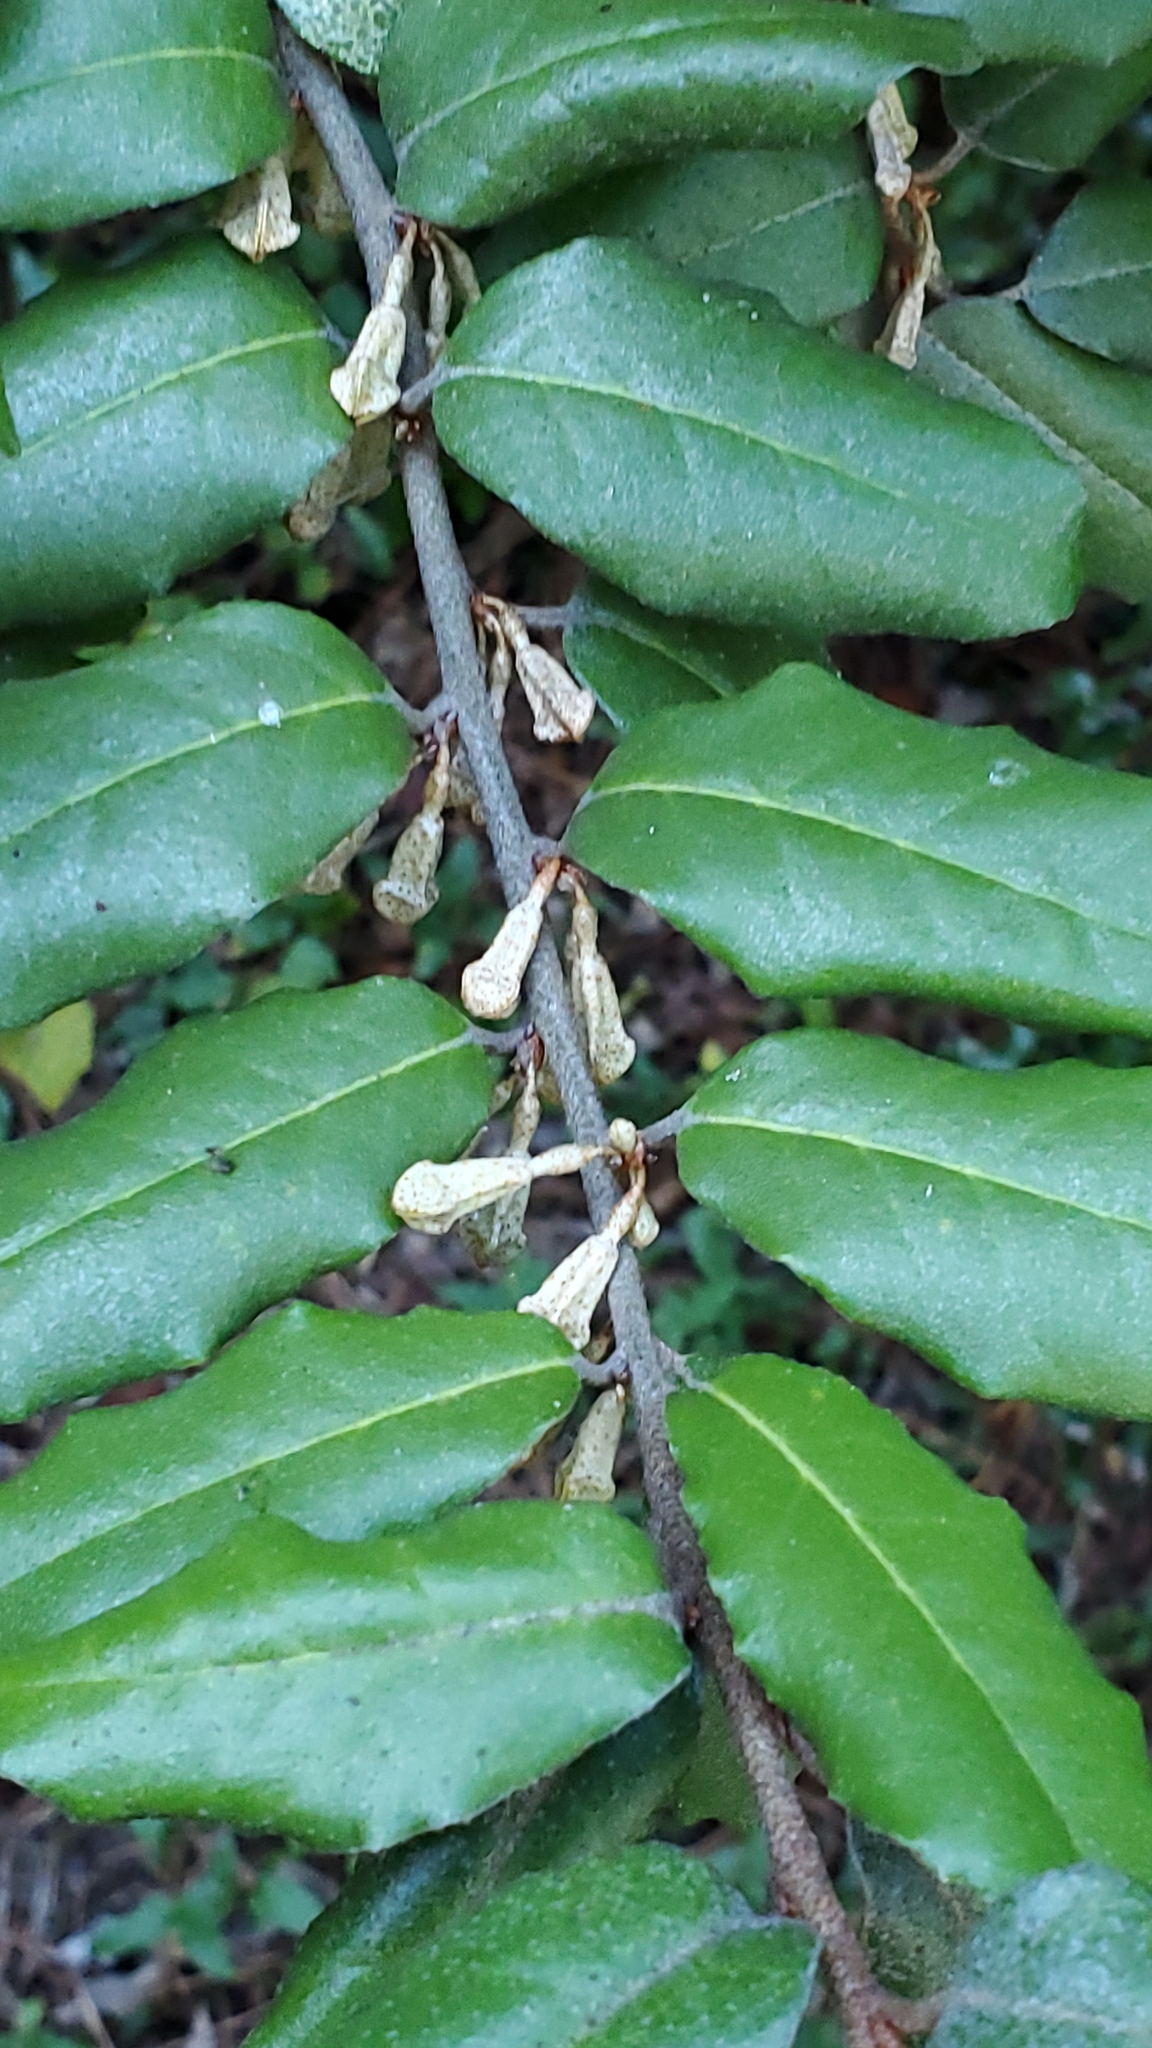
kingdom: Plantae
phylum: Tracheophyta
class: Magnoliopsida
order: Rosales
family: Elaeagnaceae
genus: Elaeagnus
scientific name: Elaeagnus pungens
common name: Spiny oleaster
